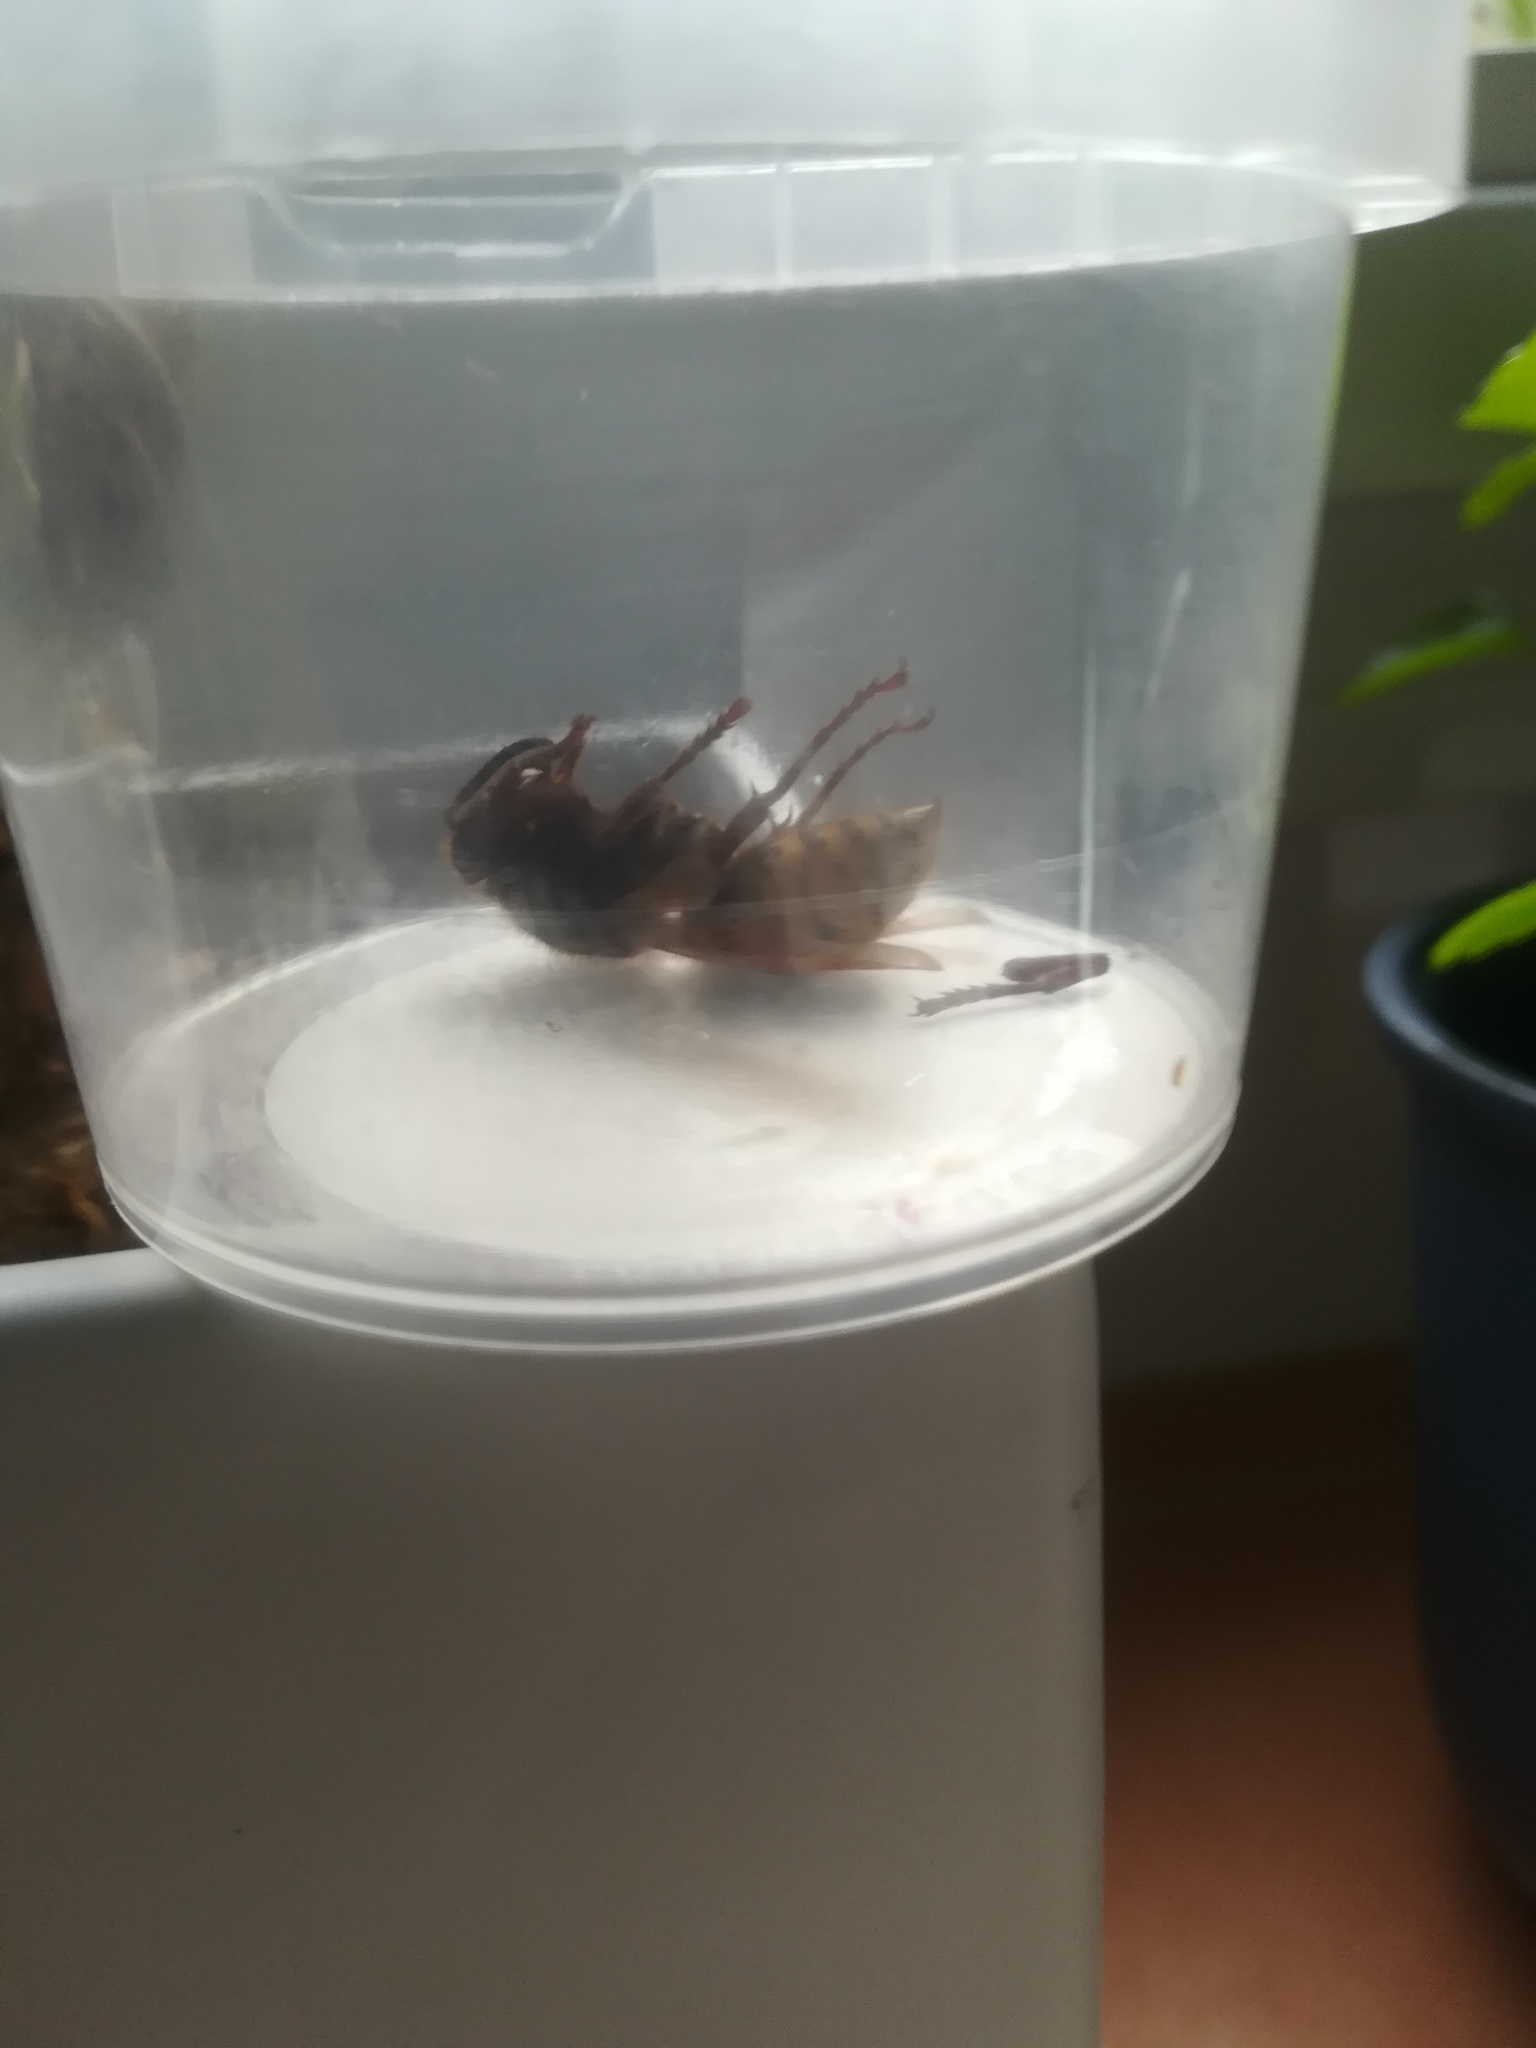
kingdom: Animalia
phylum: Arthropoda
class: Insecta
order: Hymenoptera
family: Vespidae
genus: Vespa
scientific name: Vespa crabro
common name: Hornet
